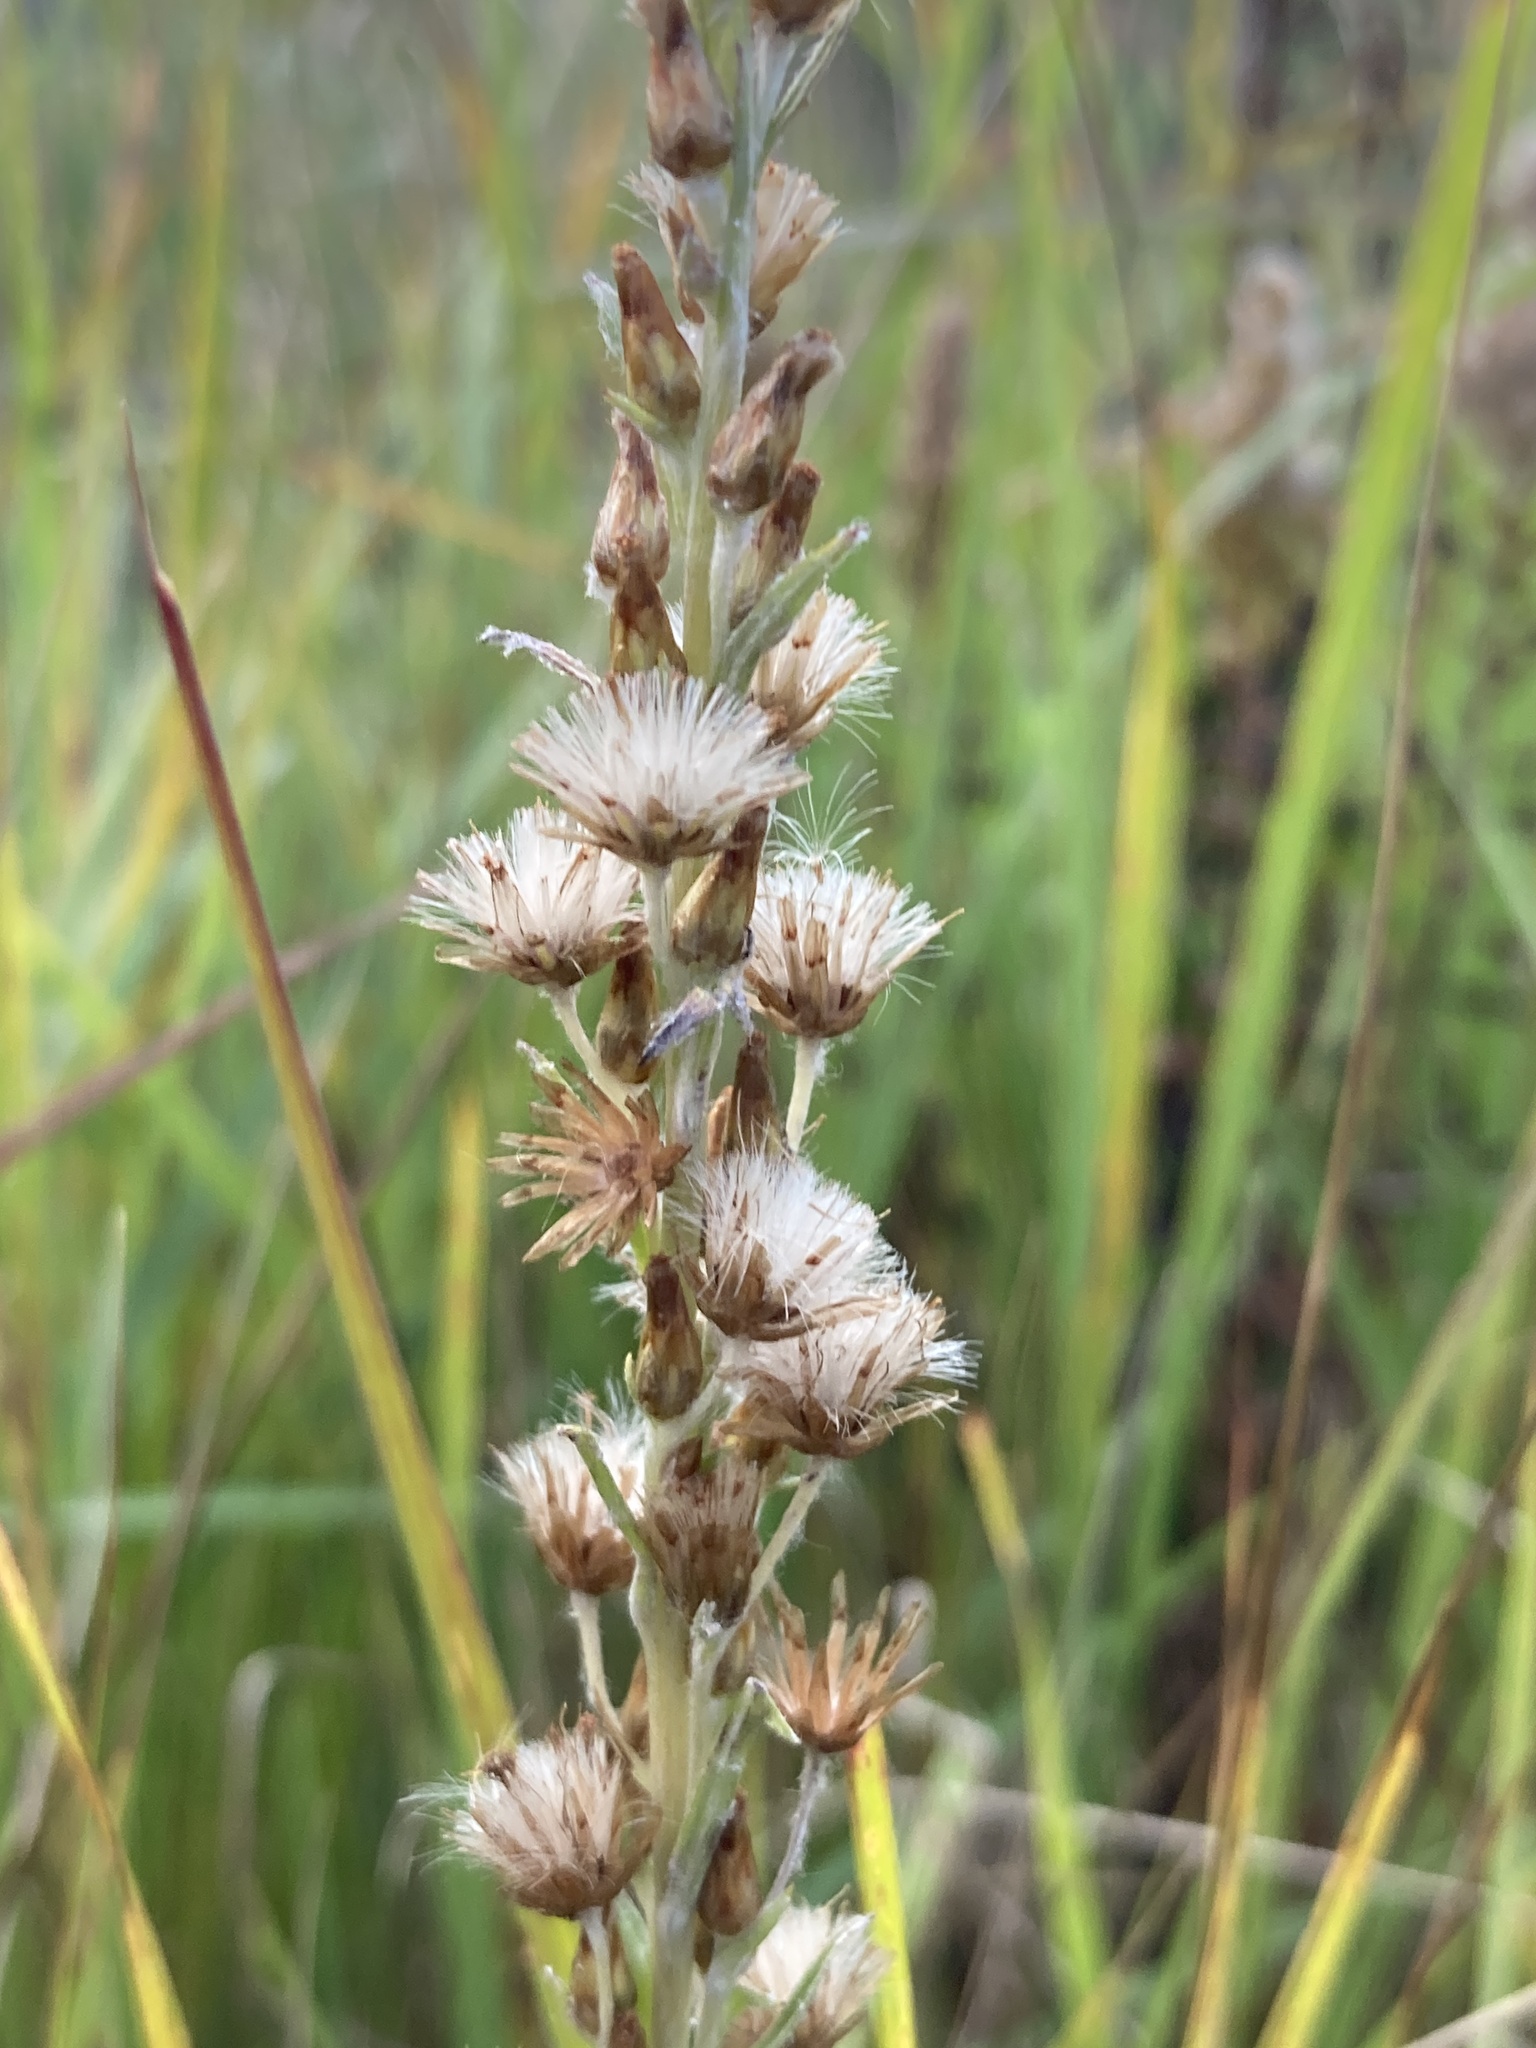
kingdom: Plantae
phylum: Tracheophyta
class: Magnoliopsida
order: Asterales
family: Asteraceae
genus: Omalotheca
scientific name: Omalotheca sylvatica
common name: Heath cudweed
